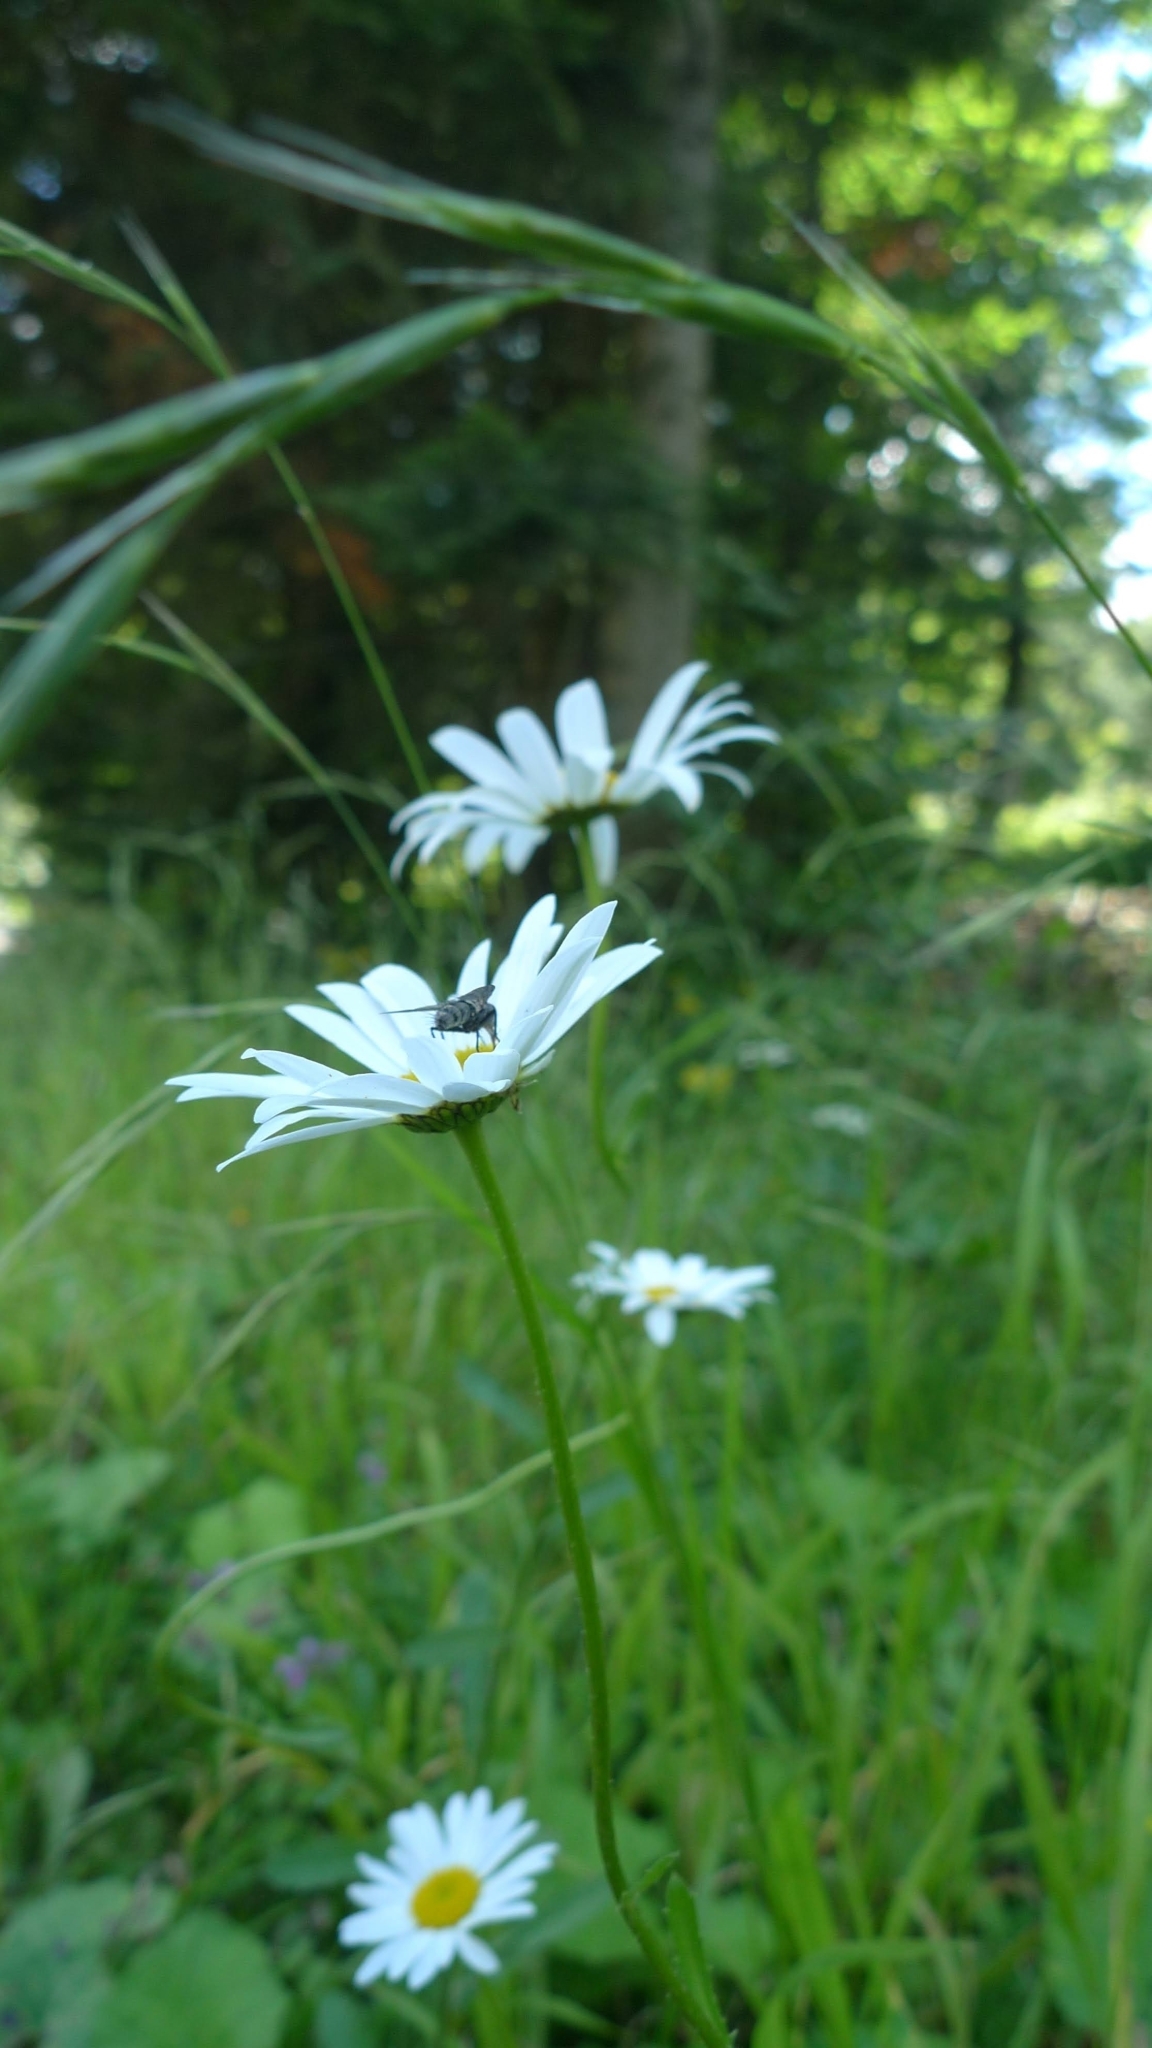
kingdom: Plantae
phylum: Tracheophyta
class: Magnoliopsida
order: Asterales
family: Asteraceae
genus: Leucanthemum
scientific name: Leucanthemum vulgare
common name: Oxeye daisy
